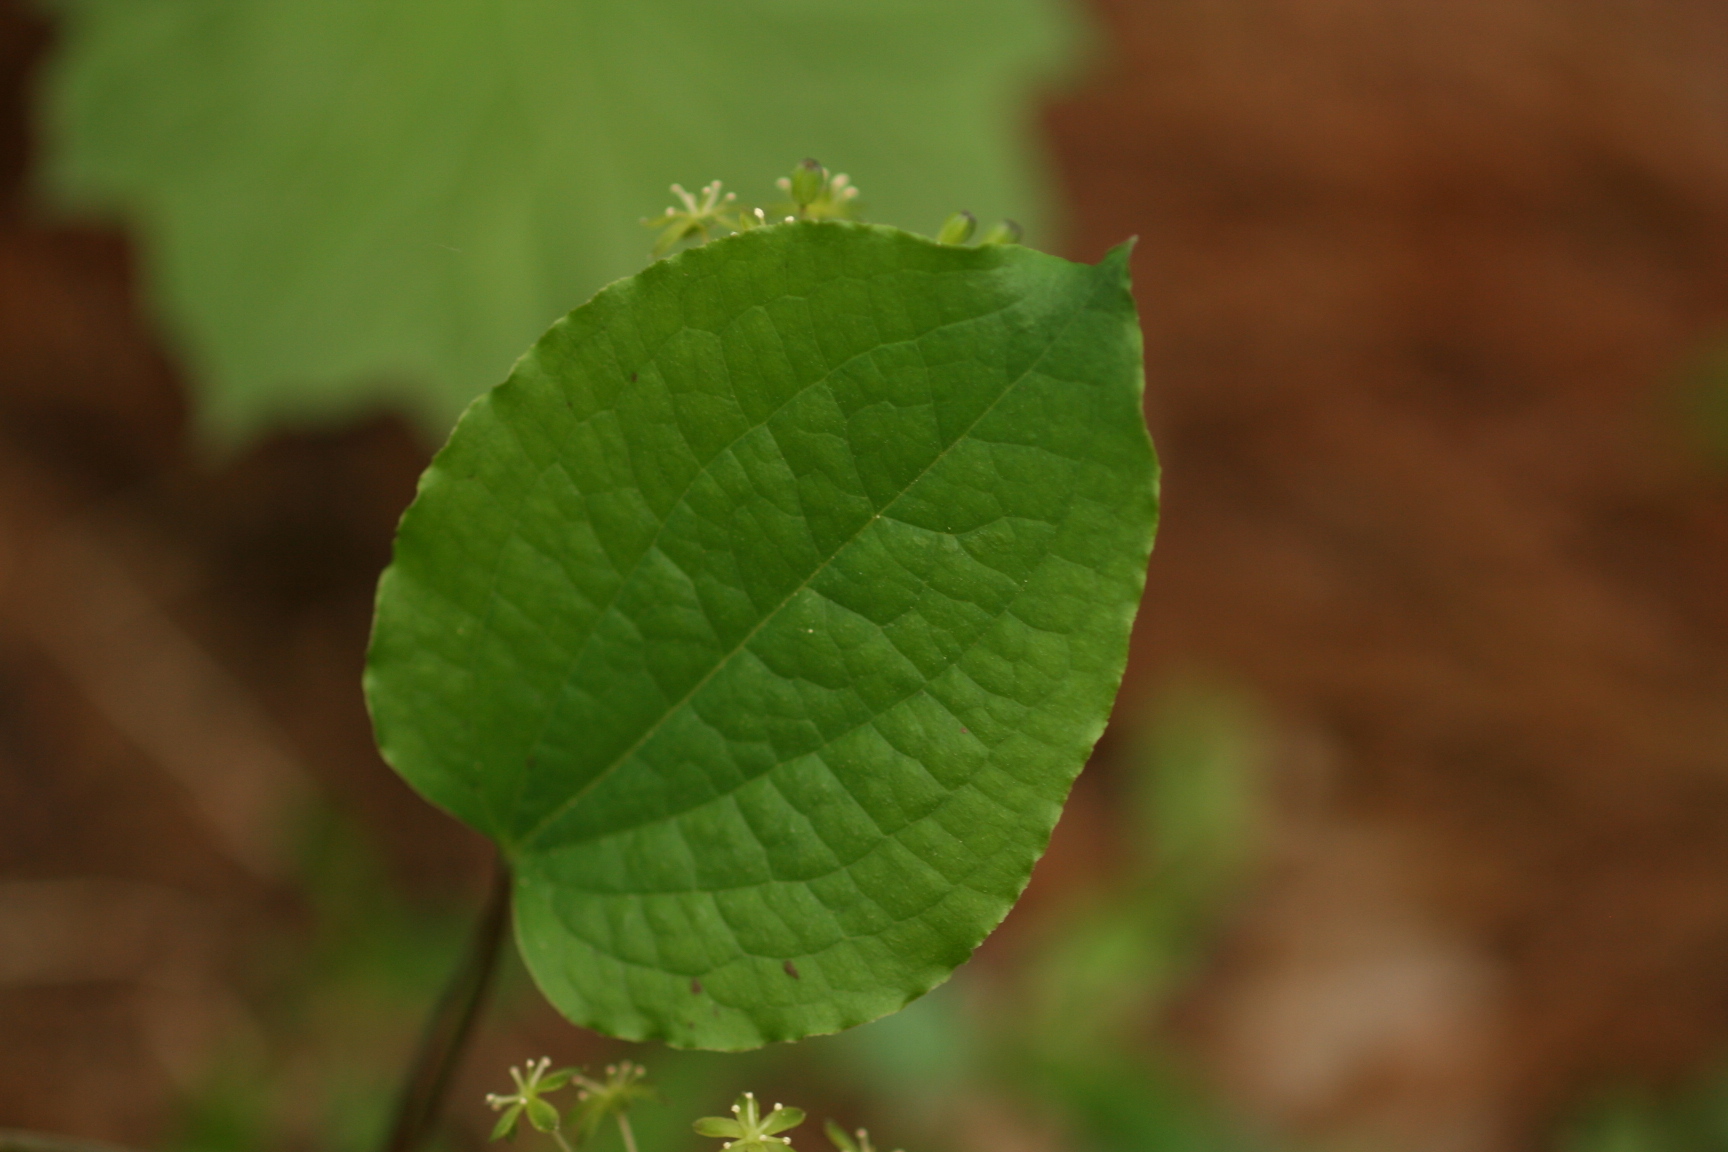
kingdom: Plantae
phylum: Tracheophyta
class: Liliopsida
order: Liliales
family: Smilacaceae
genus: Smilax
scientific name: Smilax nipponica
